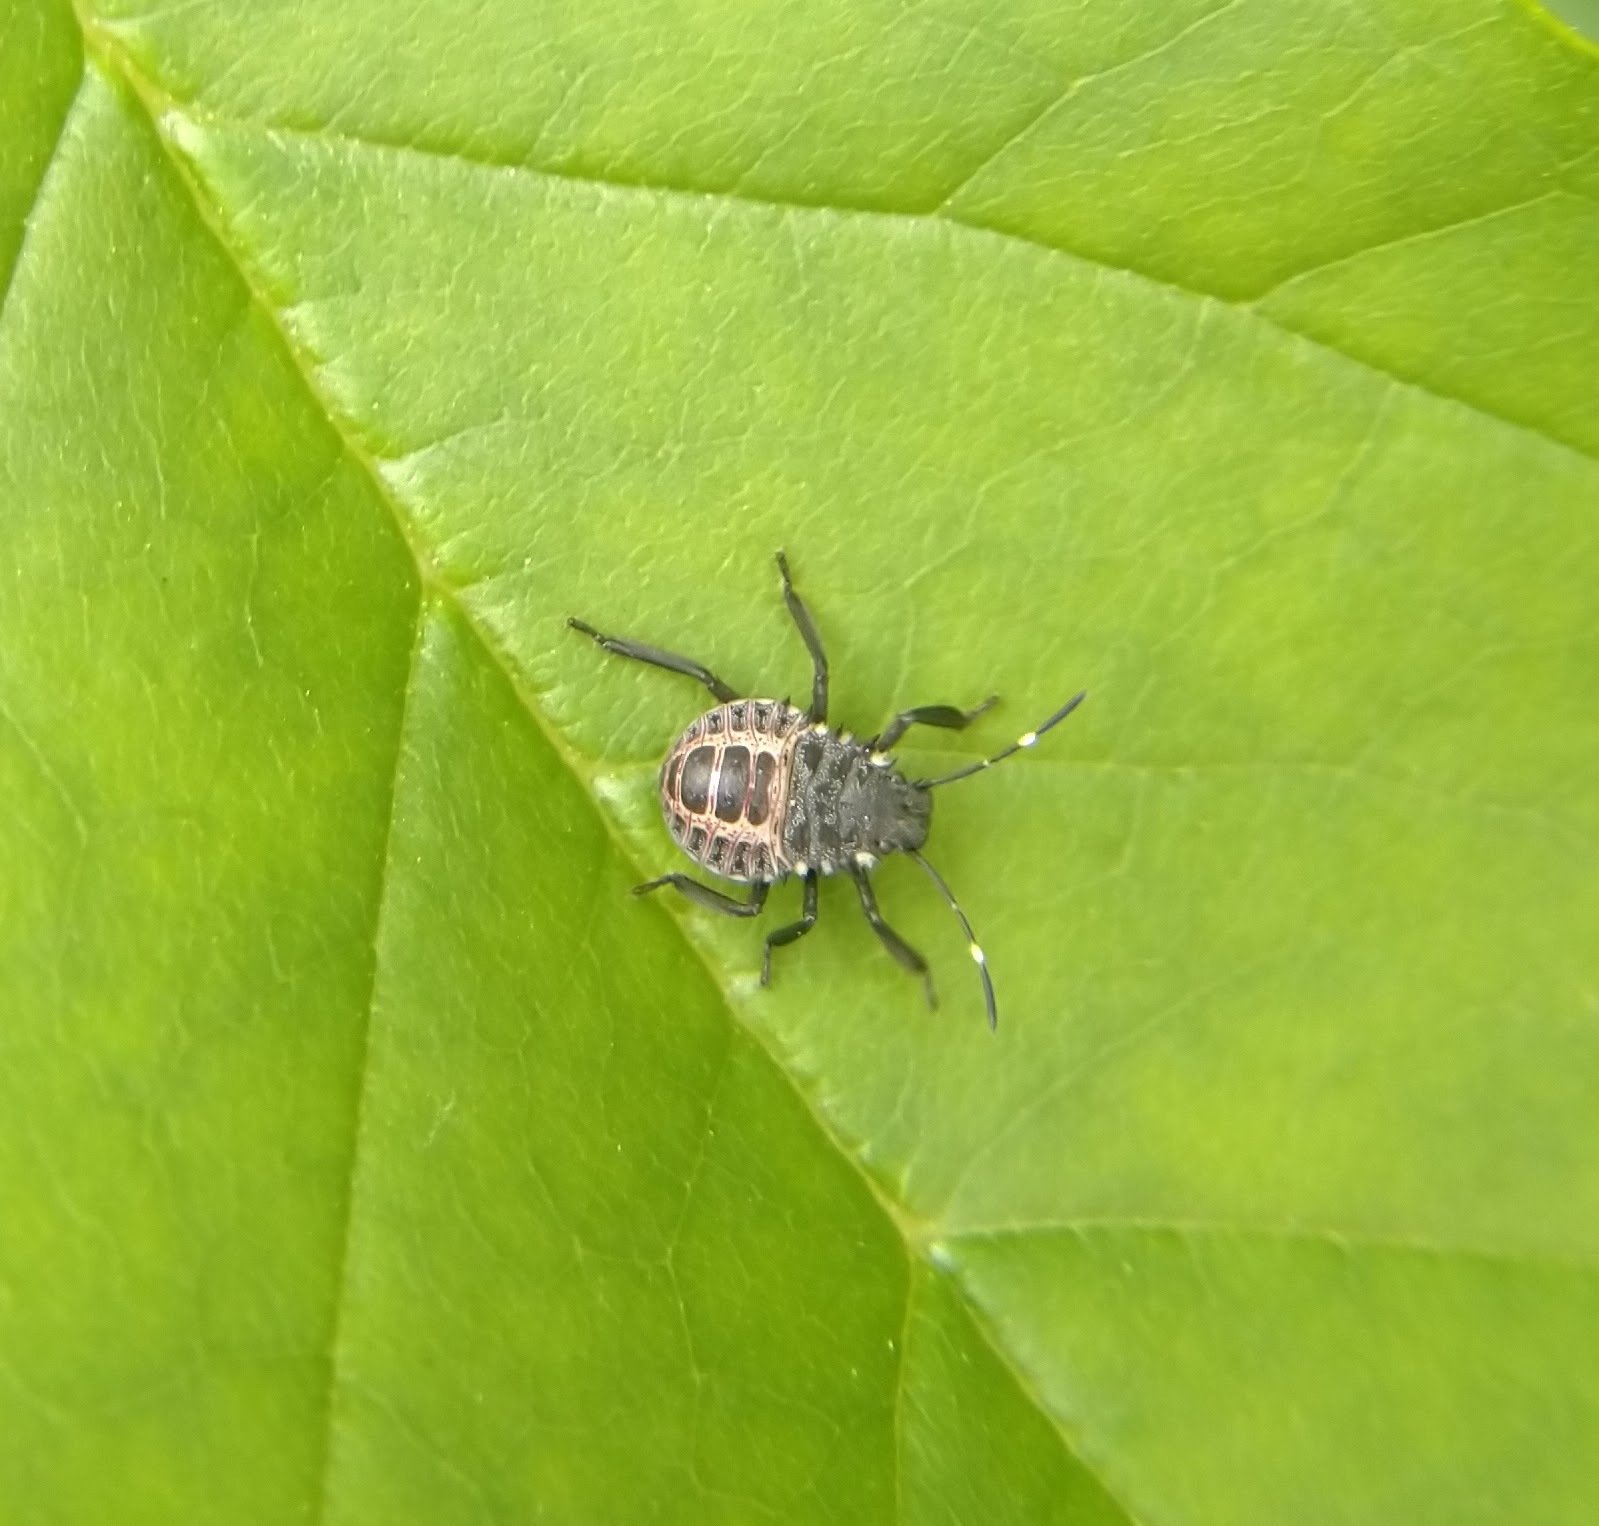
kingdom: Animalia
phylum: Arthropoda
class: Insecta
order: Hemiptera
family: Pentatomidae
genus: Halyomorpha
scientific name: Halyomorpha halys
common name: Brown marmorated stink bug
